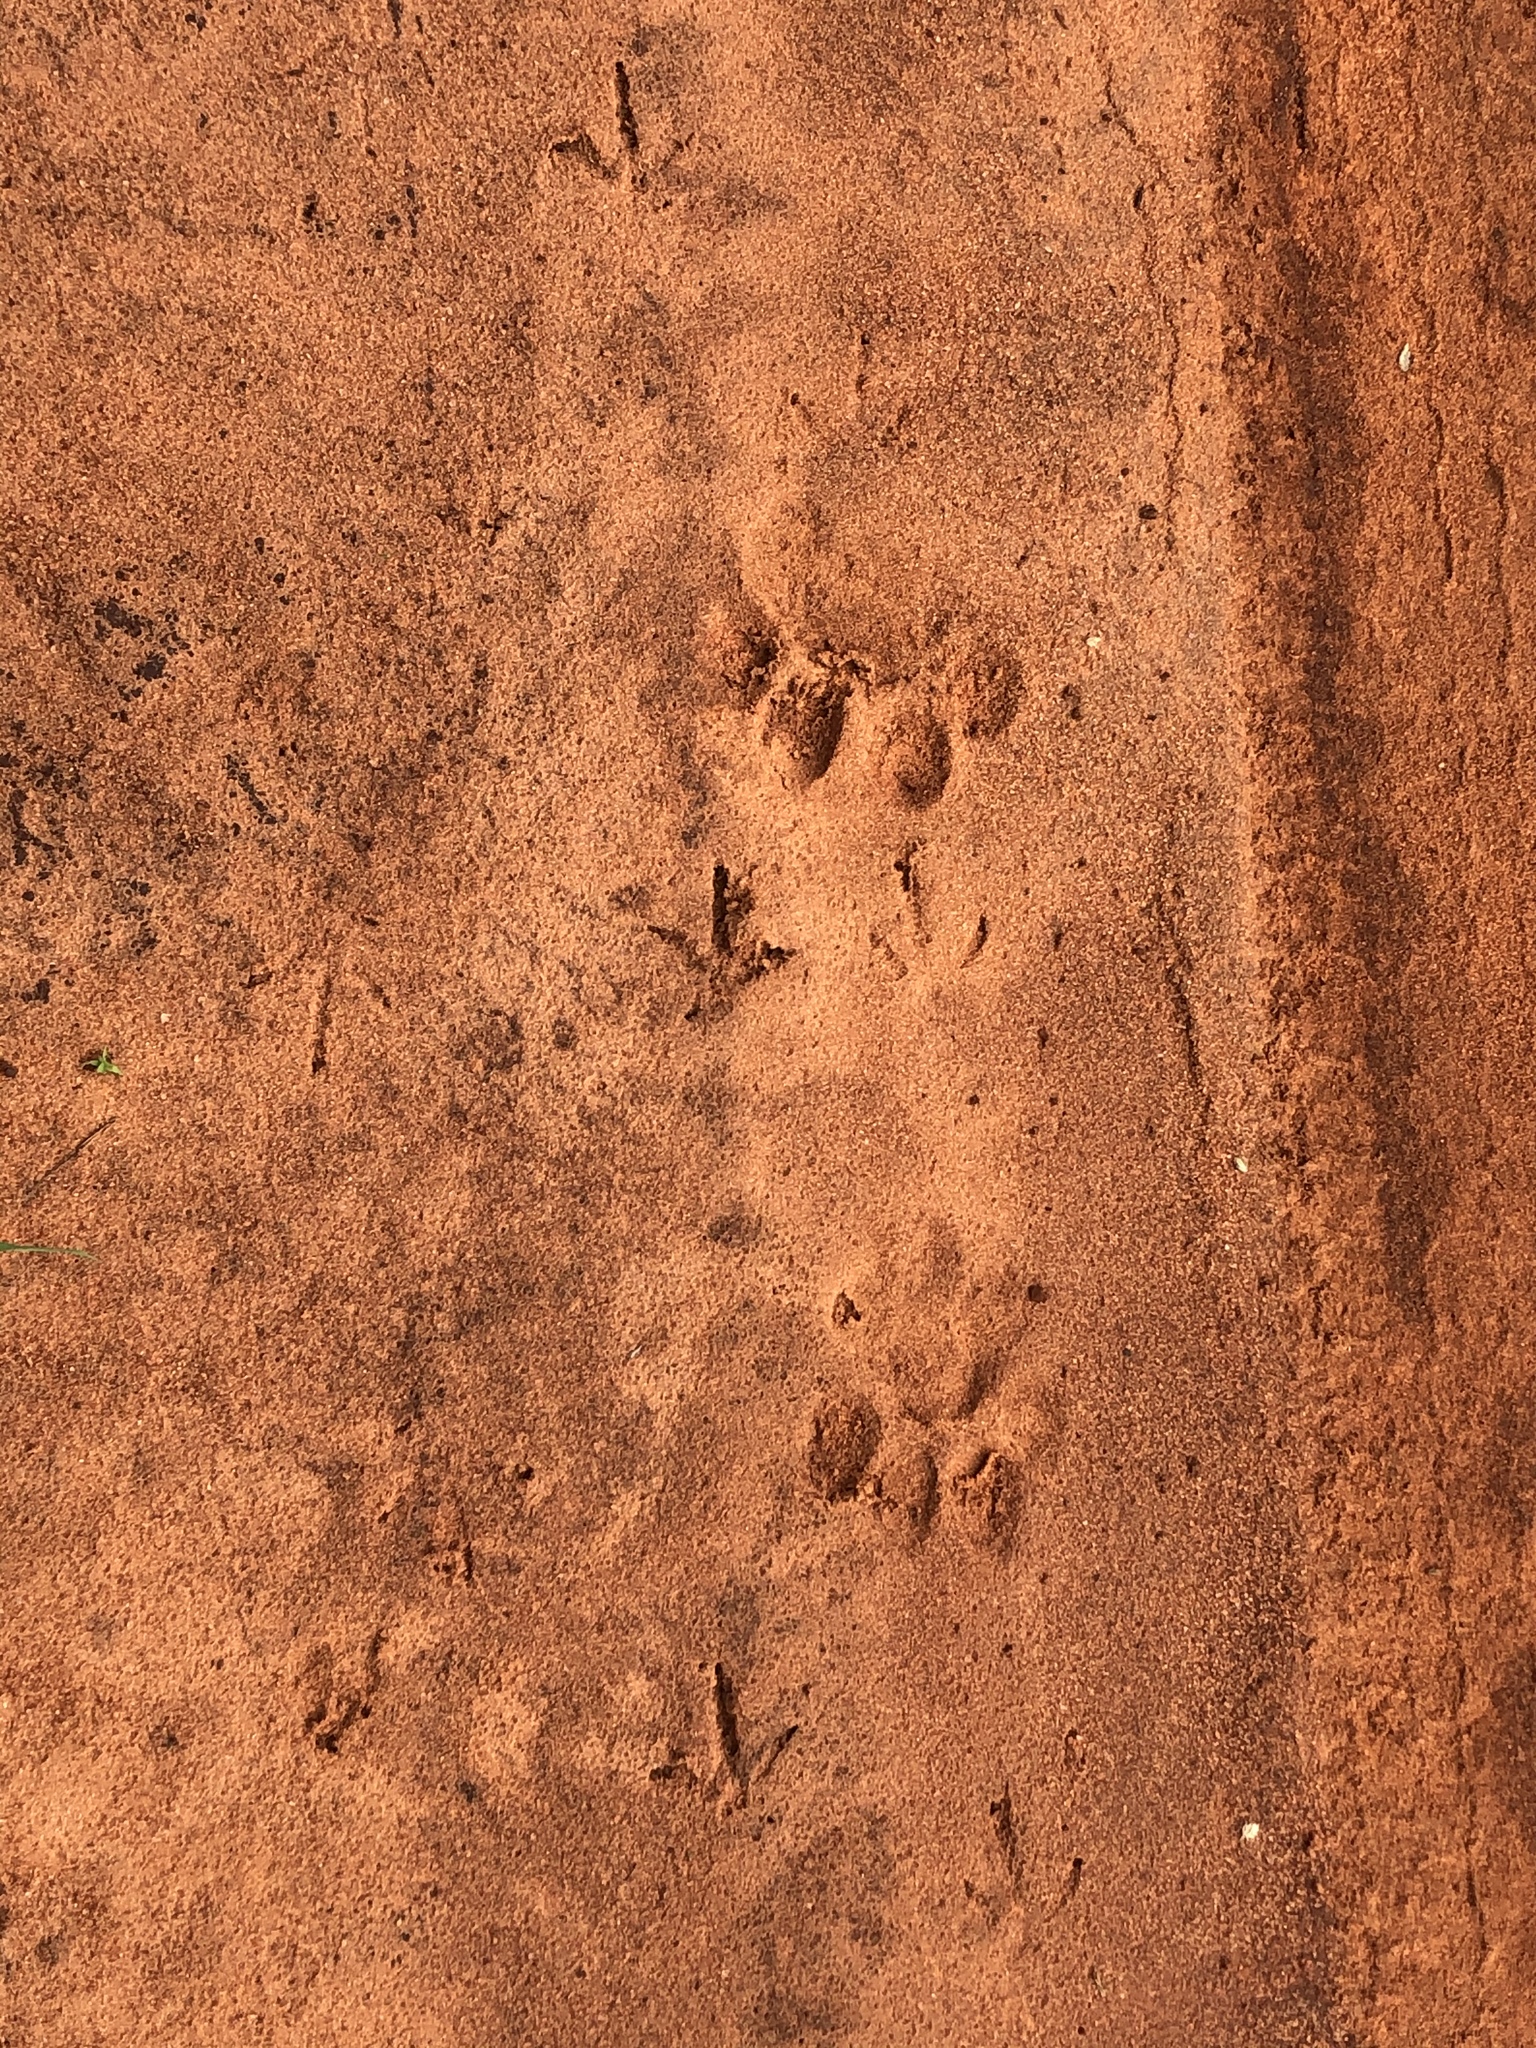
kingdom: Animalia
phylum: Chordata
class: Mammalia
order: Carnivora
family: Felidae
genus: Panthera
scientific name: Panthera leo
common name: Lion
